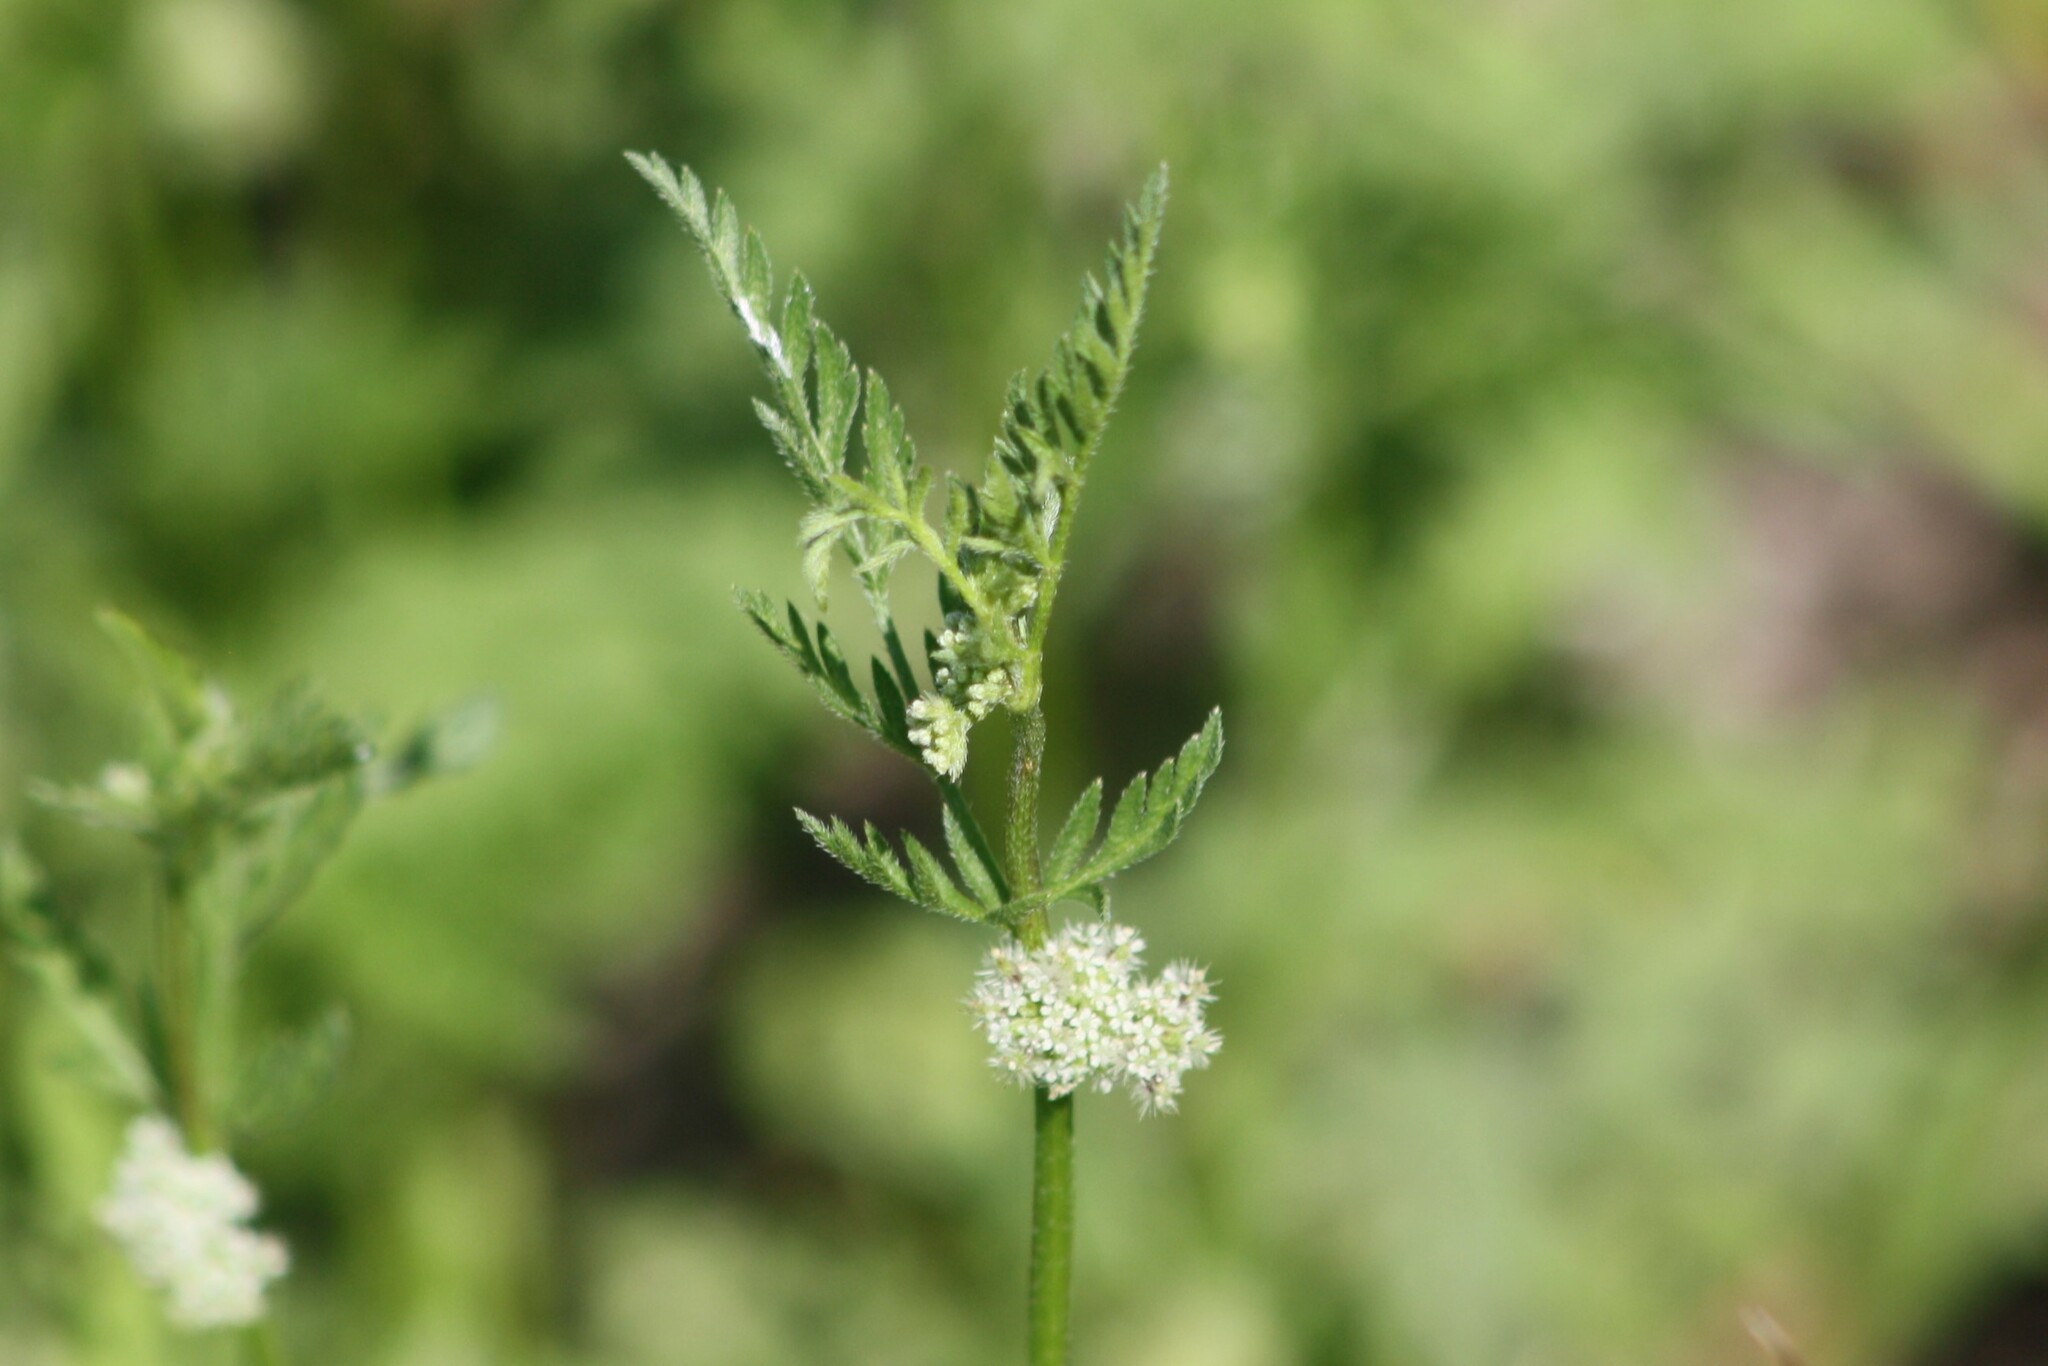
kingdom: Plantae
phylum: Tracheophyta
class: Magnoliopsida
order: Apiales
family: Apiaceae
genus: Torilis
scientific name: Torilis nodosa
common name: Knotted hedge-parsley
